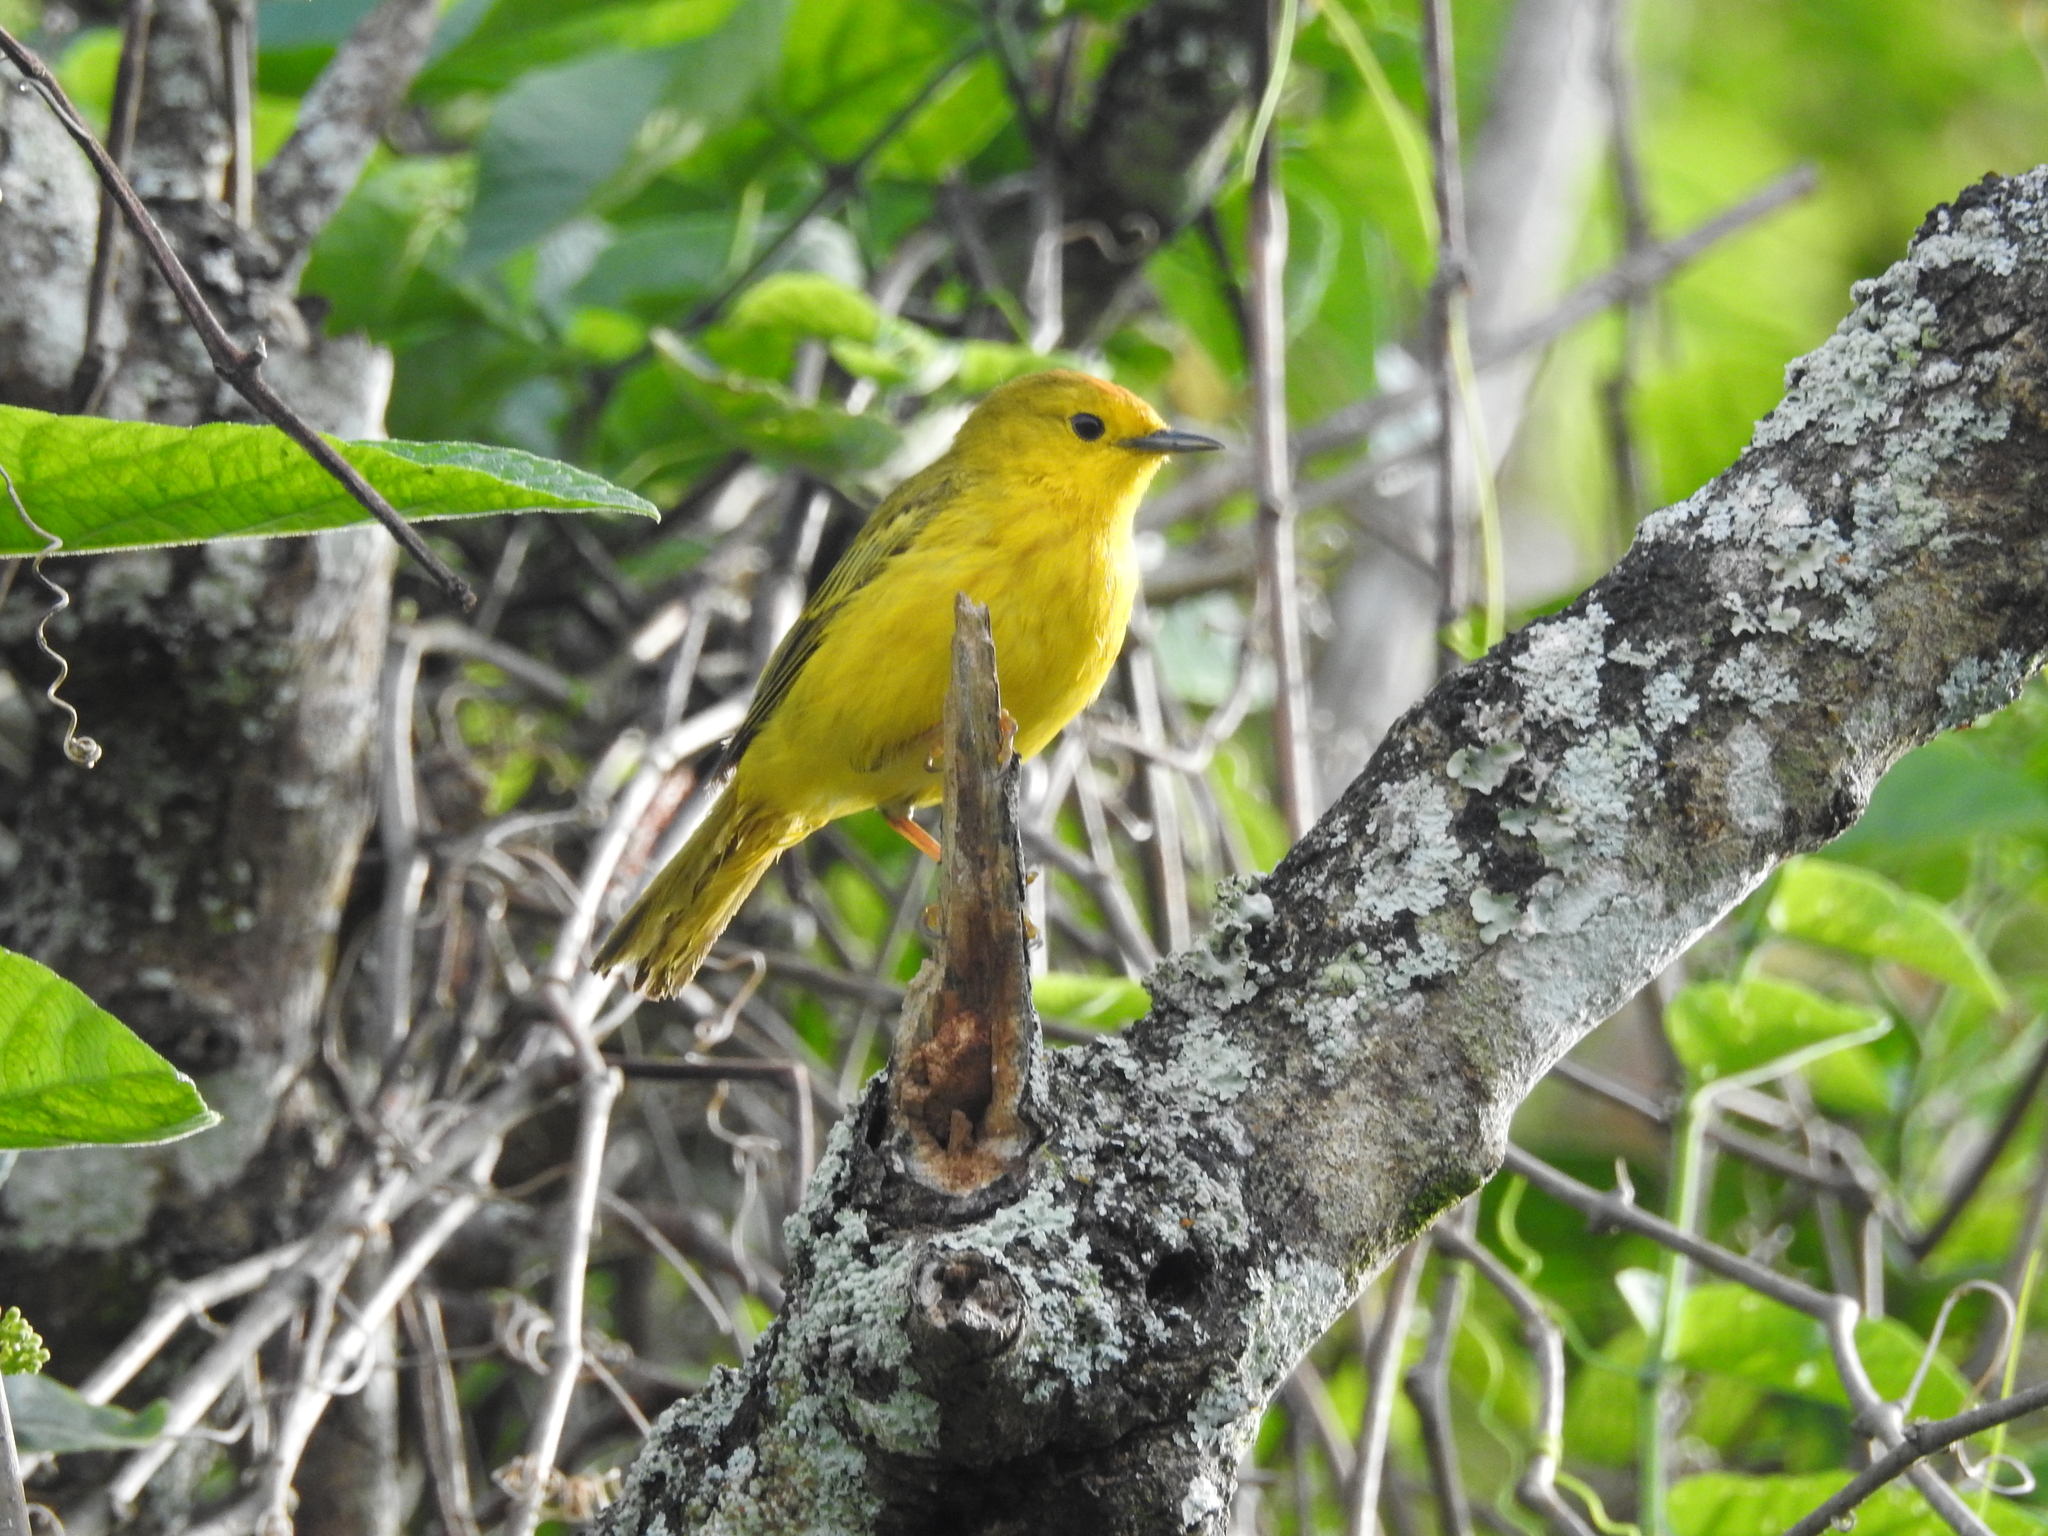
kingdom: Animalia
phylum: Chordata
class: Aves
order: Passeriformes
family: Parulidae
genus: Setophaga
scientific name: Setophaga petechia
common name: Yellow warbler
